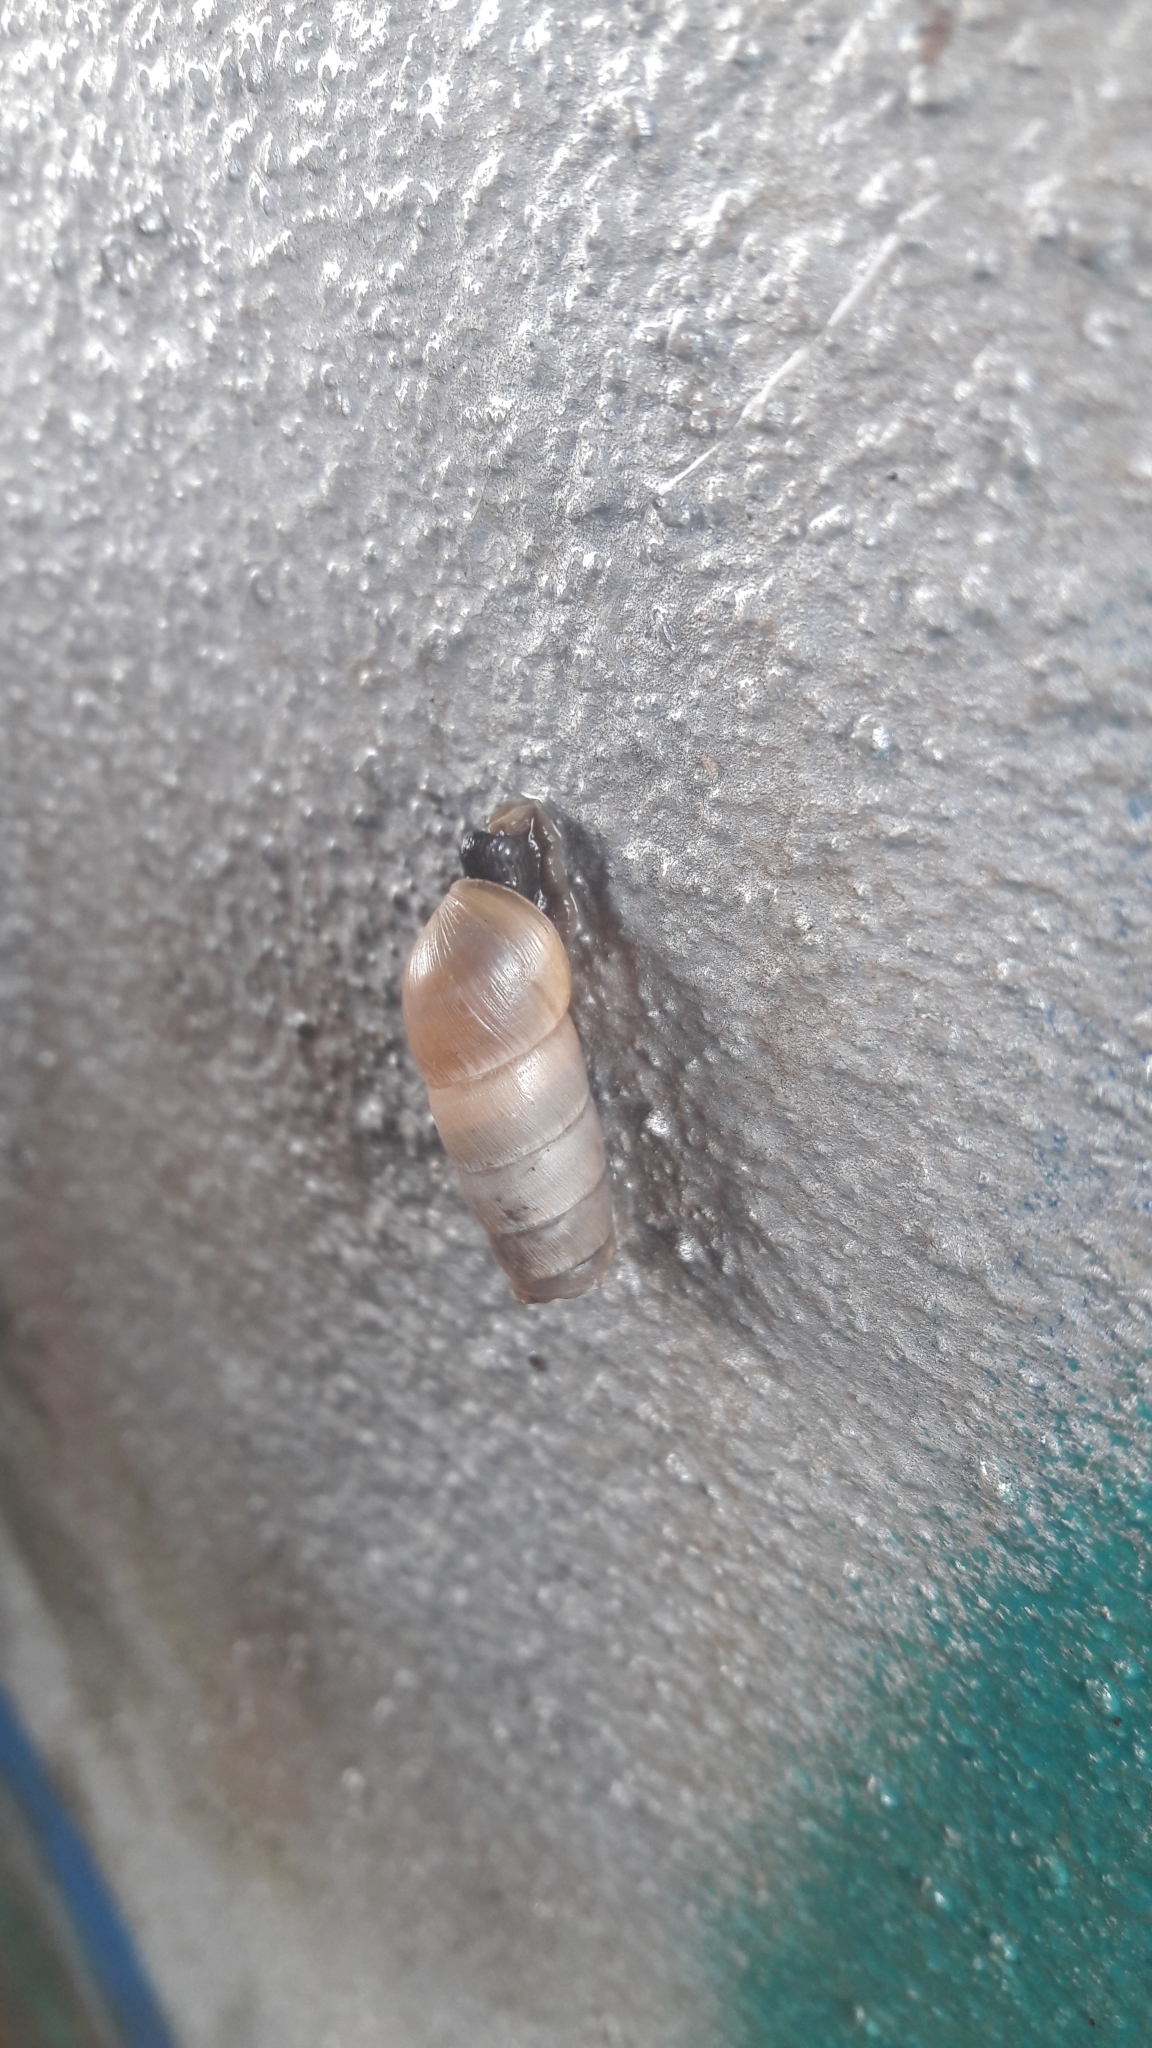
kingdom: Animalia
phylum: Mollusca
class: Gastropoda
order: Stylommatophora
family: Achatinidae
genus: Rumina
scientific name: Rumina decollata
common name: Decollate snail
